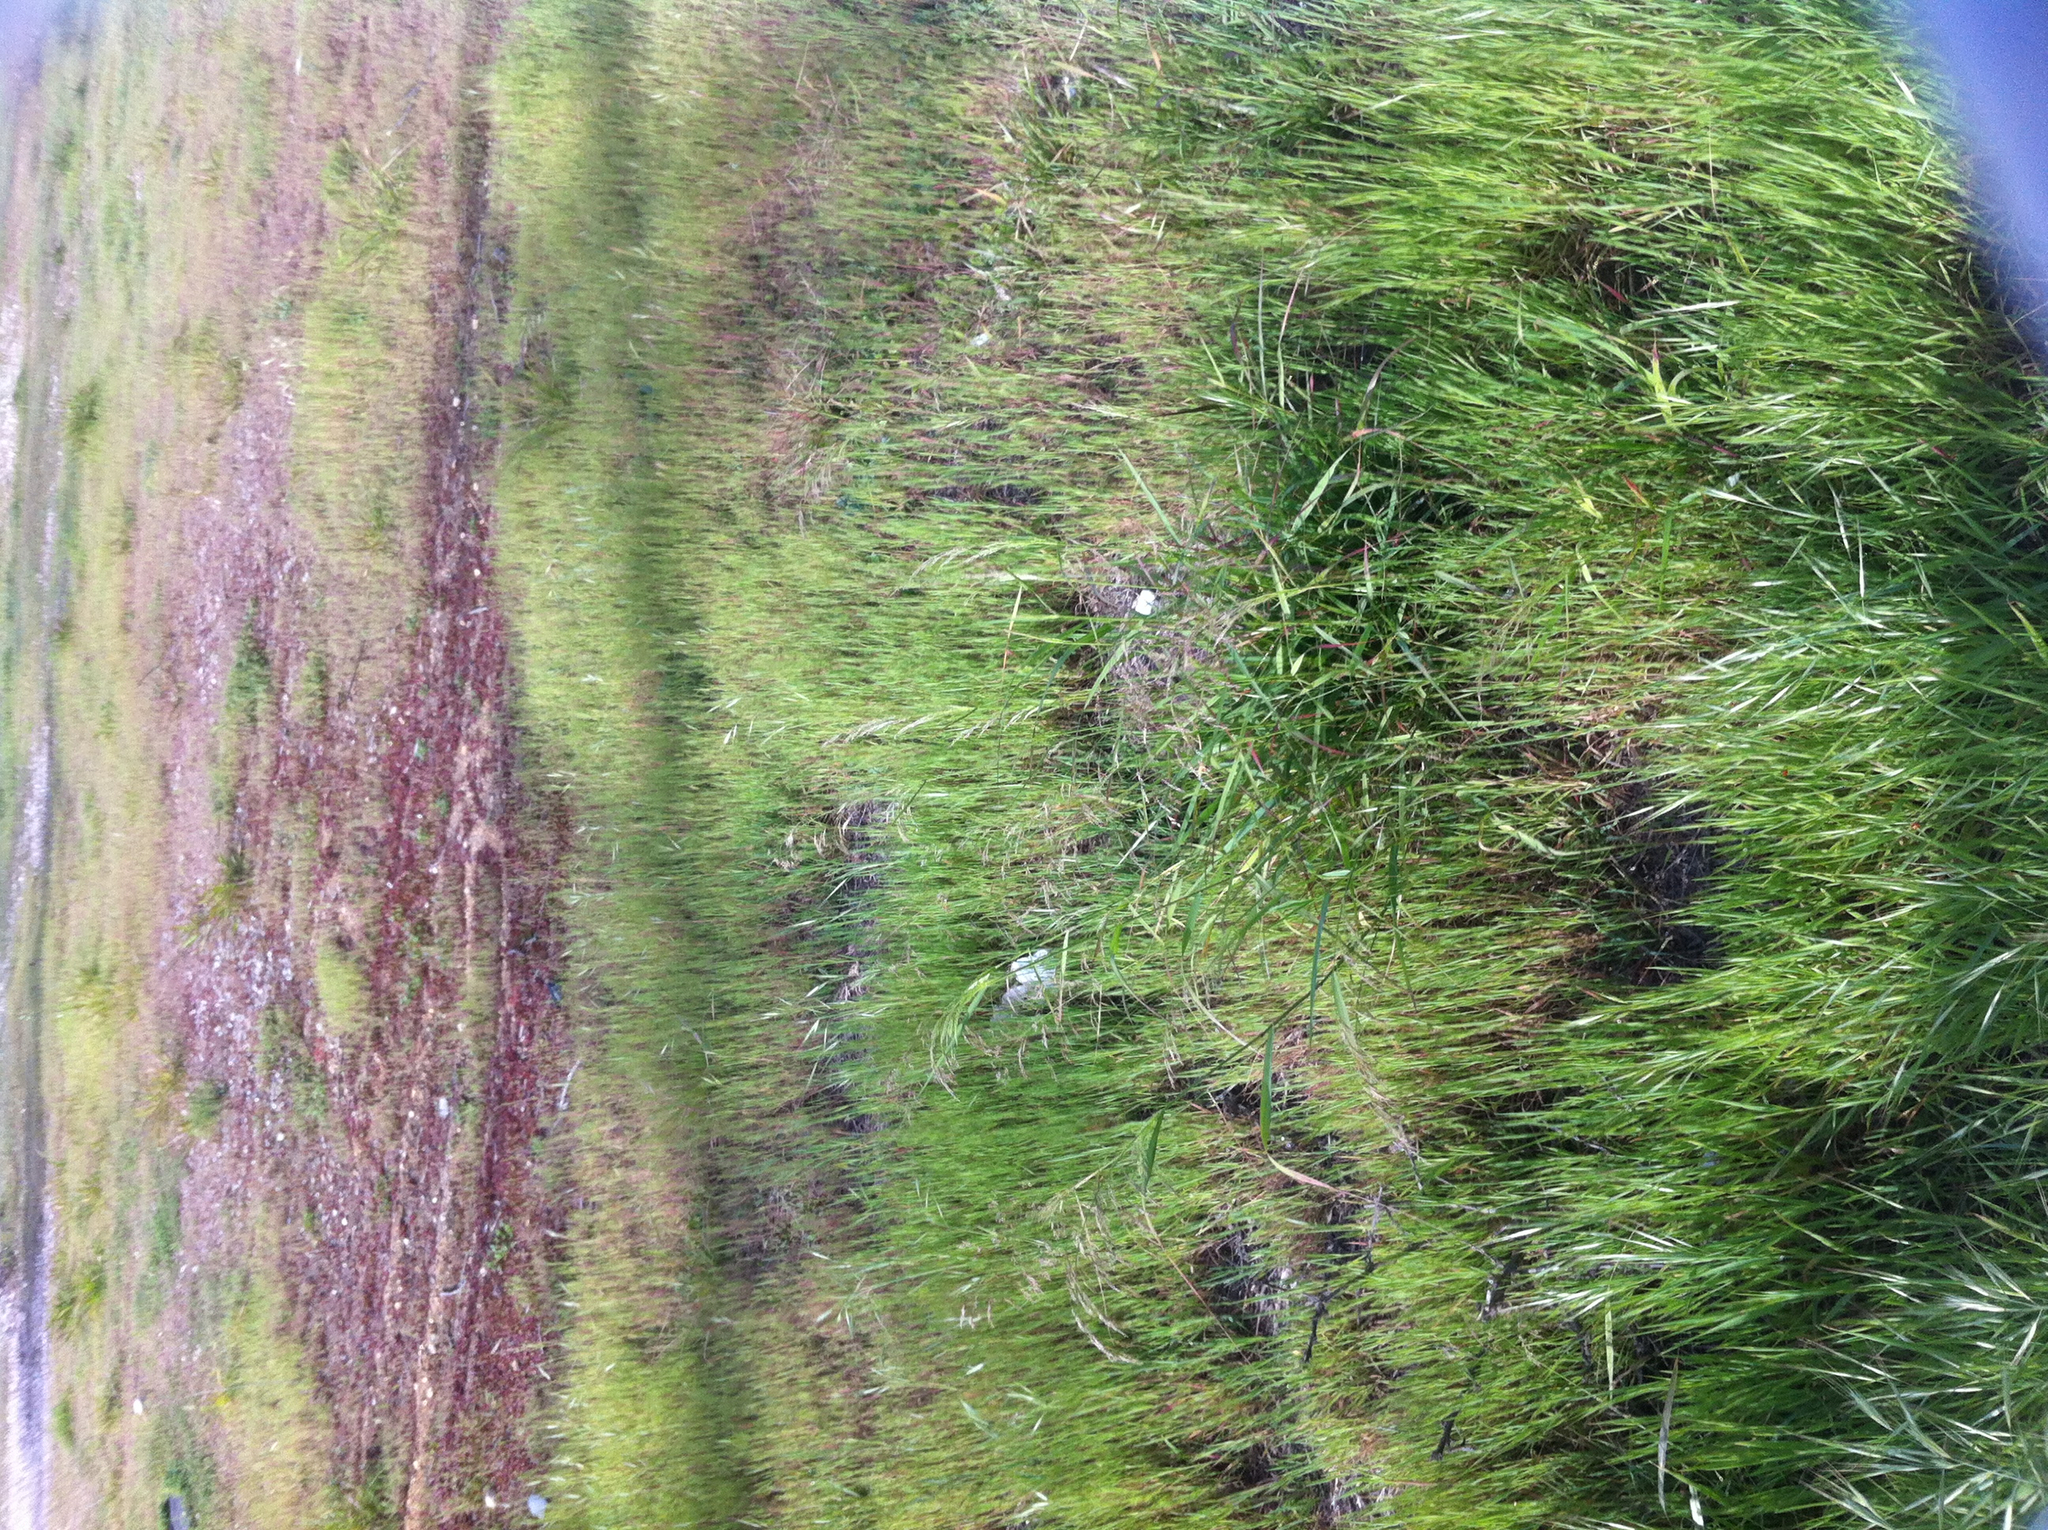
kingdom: Plantae
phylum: Tracheophyta
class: Liliopsida
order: Poales
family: Poaceae
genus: Oloptum
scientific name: Oloptum miliaceum
